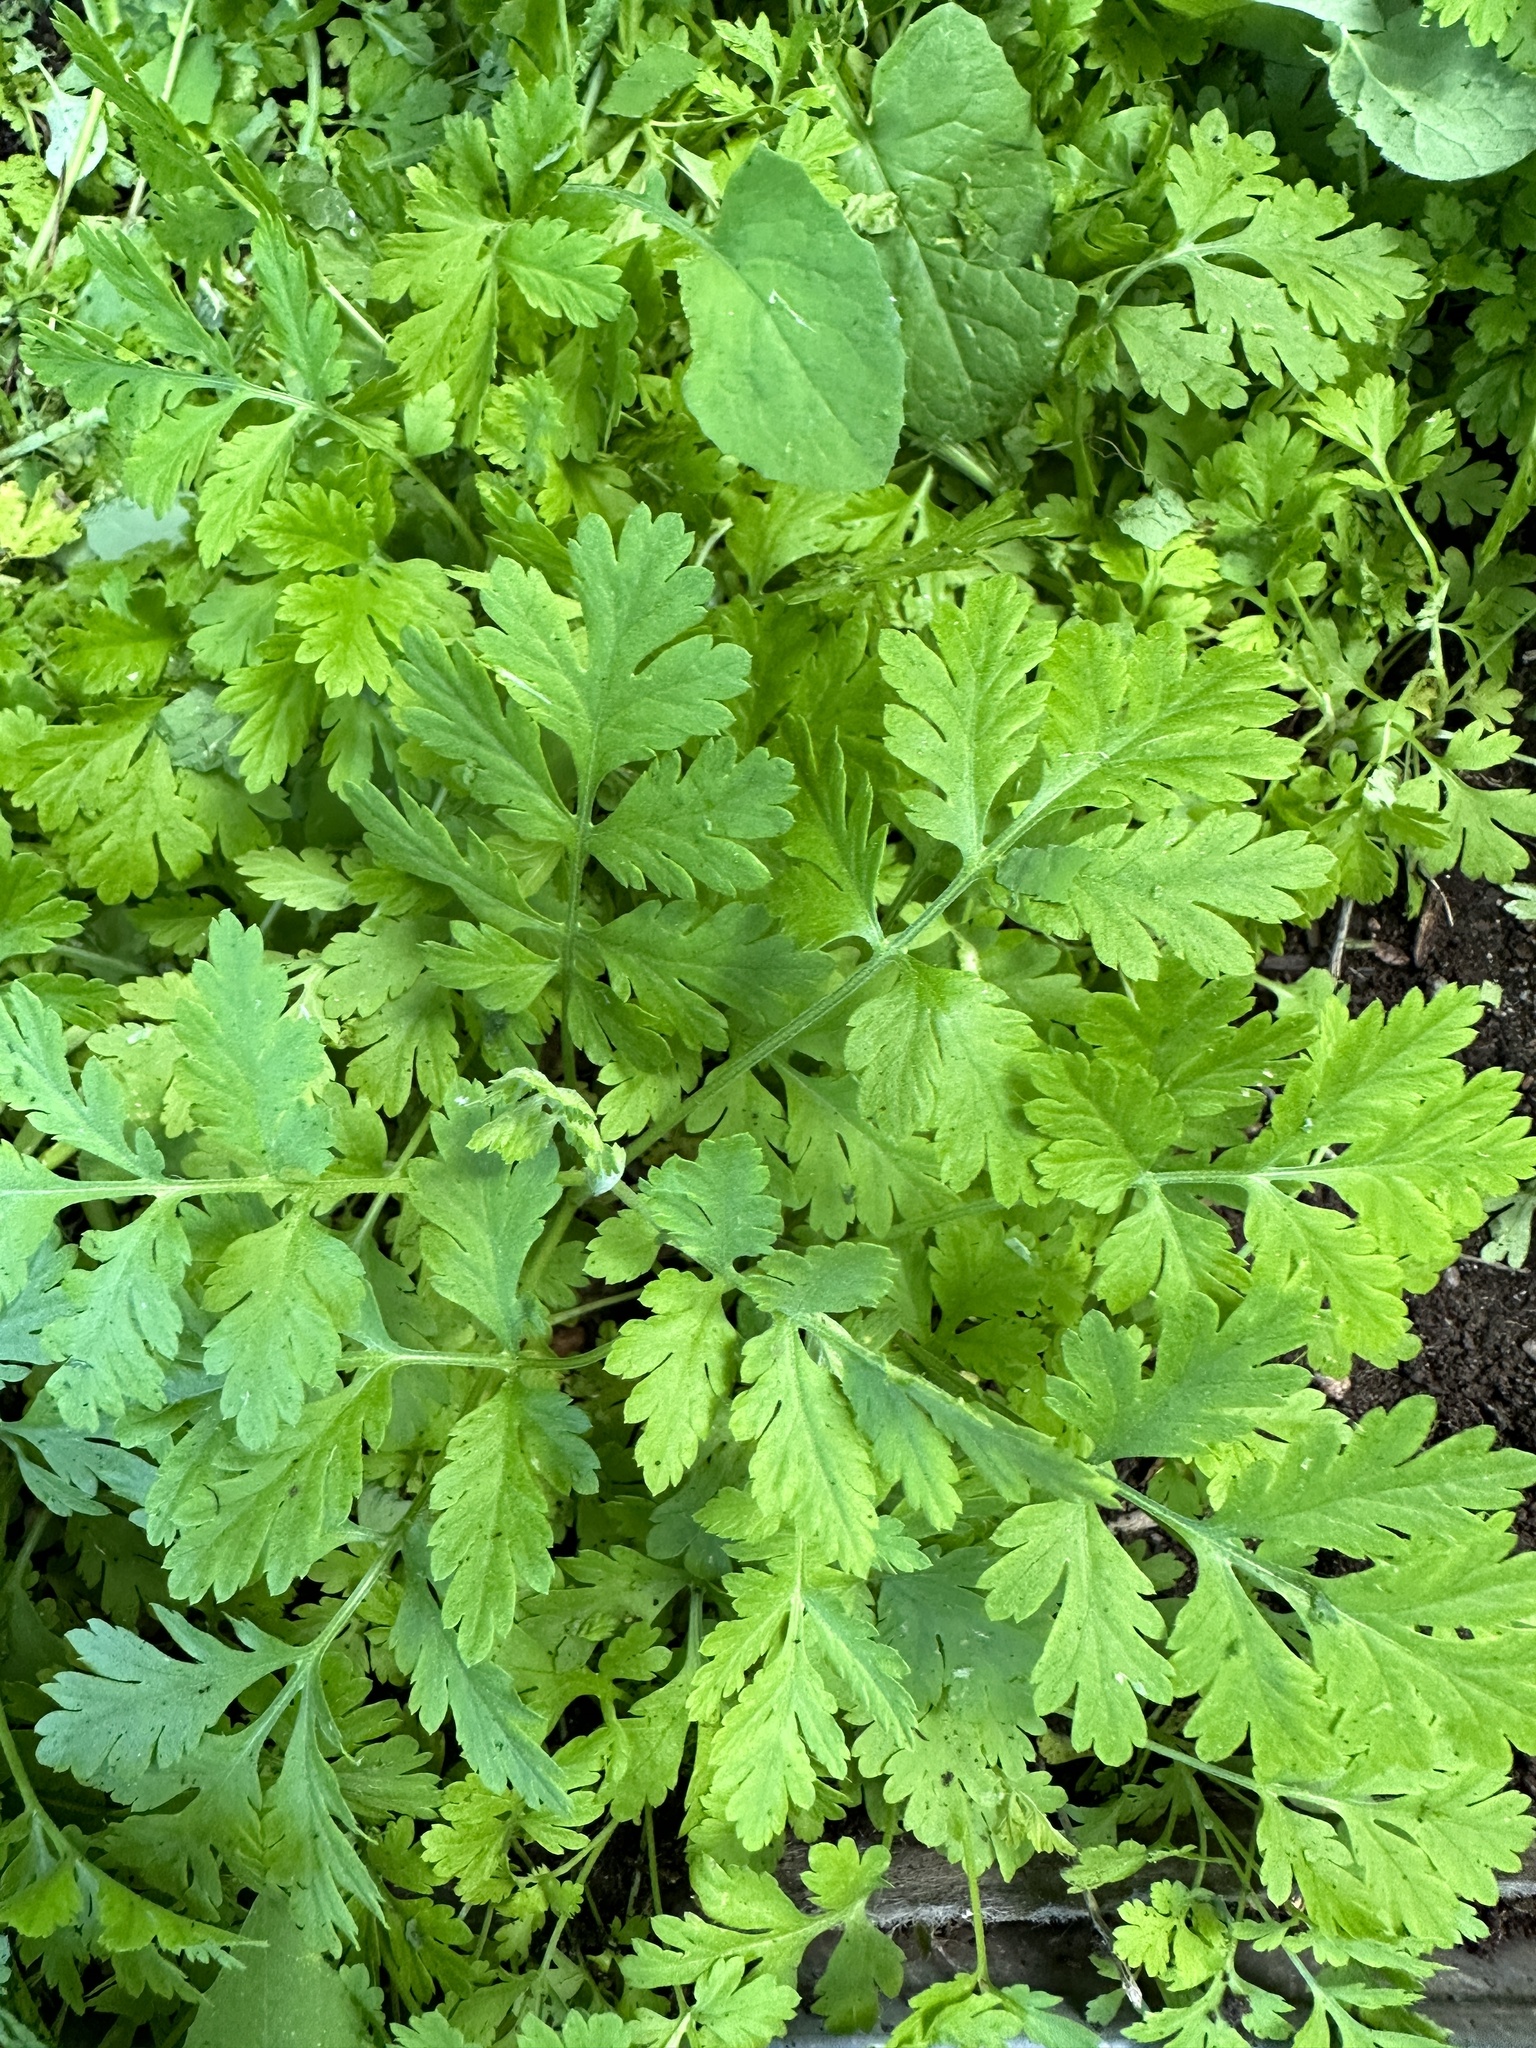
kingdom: Plantae
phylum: Tracheophyta
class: Magnoliopsida
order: Asterales
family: Asteraceae
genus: Tanacetum
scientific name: Tanacetum parthenium
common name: Feverfew
